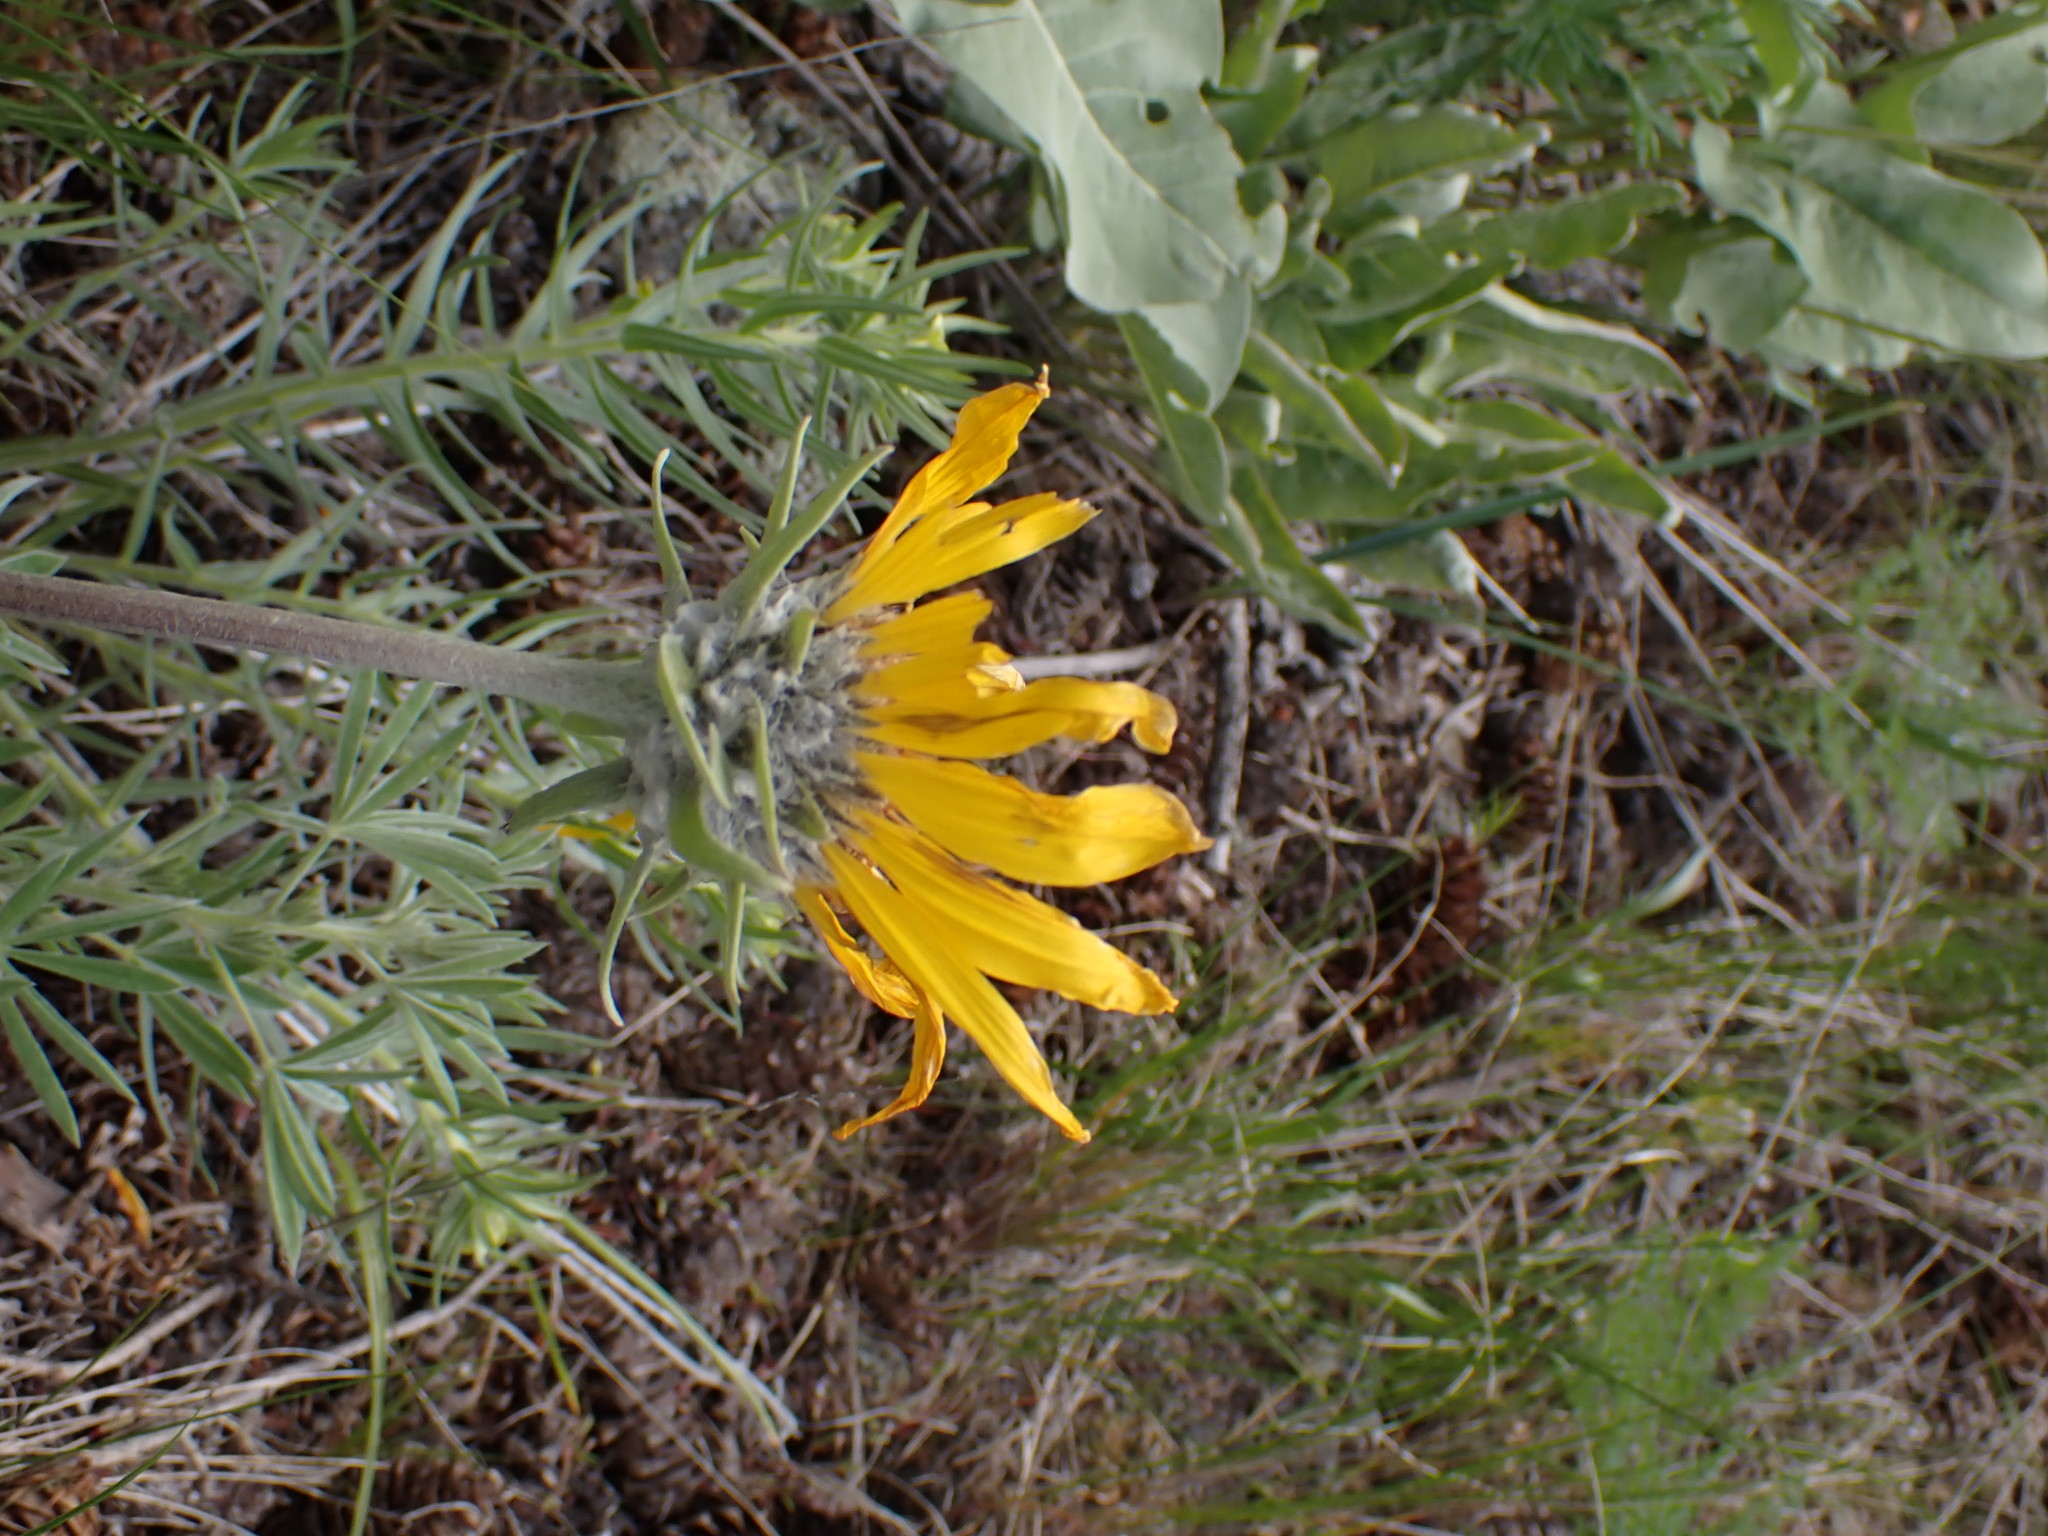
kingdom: Plantae
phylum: Tracheophyta
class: Magnoliopsida
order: Asterales
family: Asteraceae
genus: Wyethia
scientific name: Wyethia sagittata
